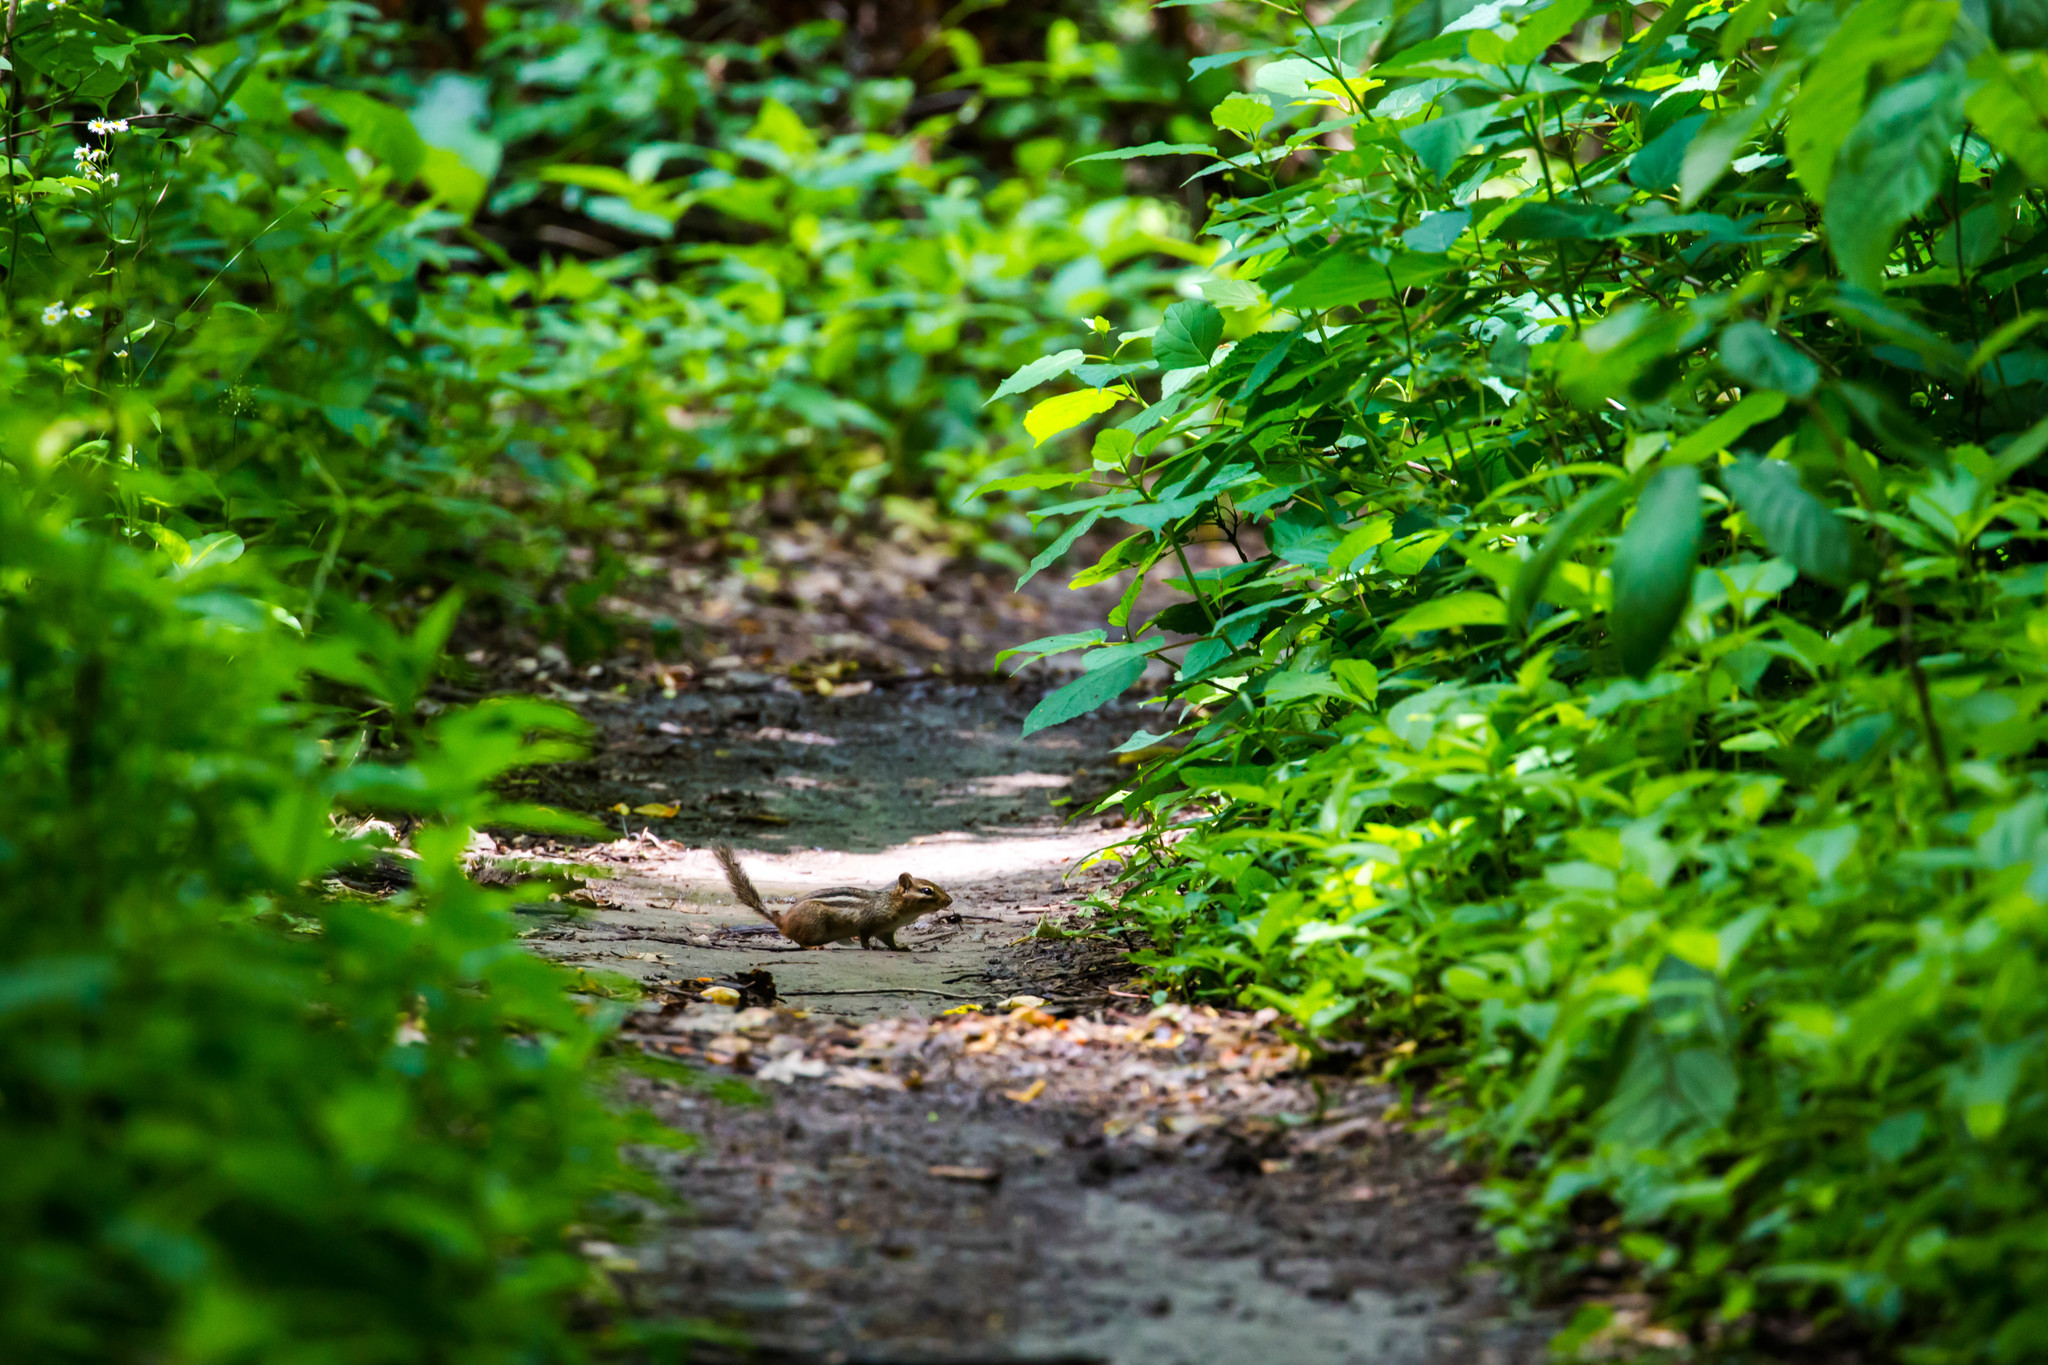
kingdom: Animalia
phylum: Chordata
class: Mammalia
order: Rodentia
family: Sciuridae
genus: Tamias
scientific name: Tamias striatus
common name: Eastern chipmunk
